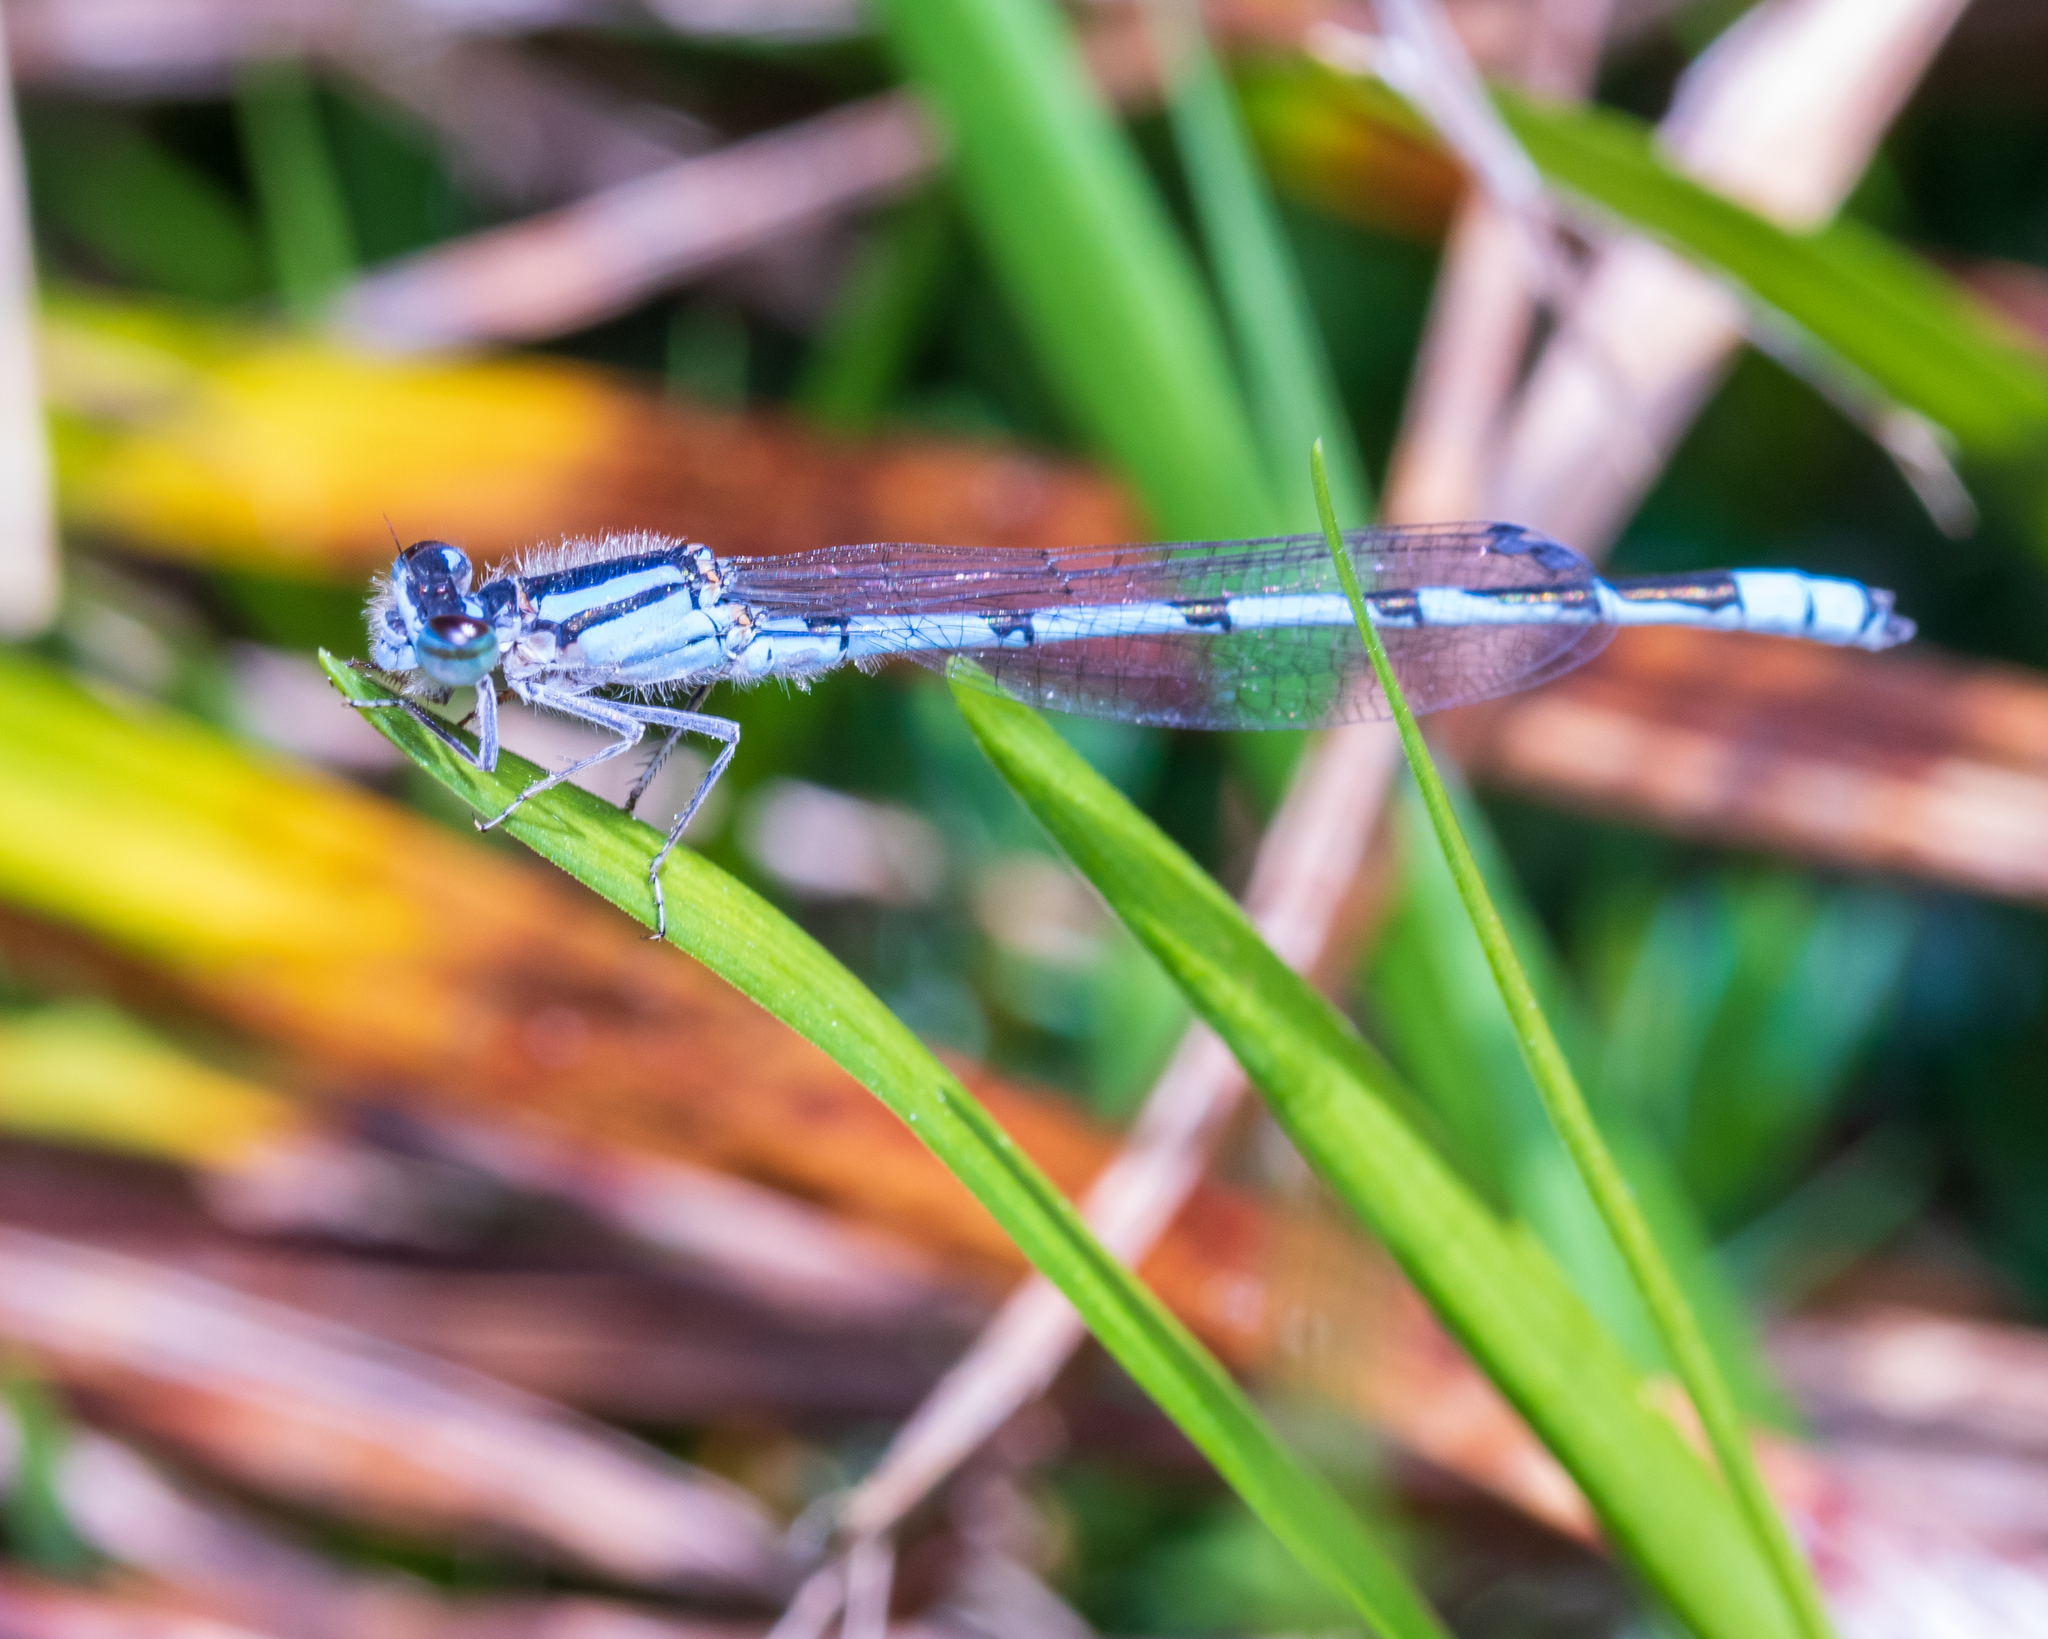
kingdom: Animalia
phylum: Arthropoda
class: Insecta
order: Odonata
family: Coenagrionidae
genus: Enallagma
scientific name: Enallagma civile
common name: Damselfly
